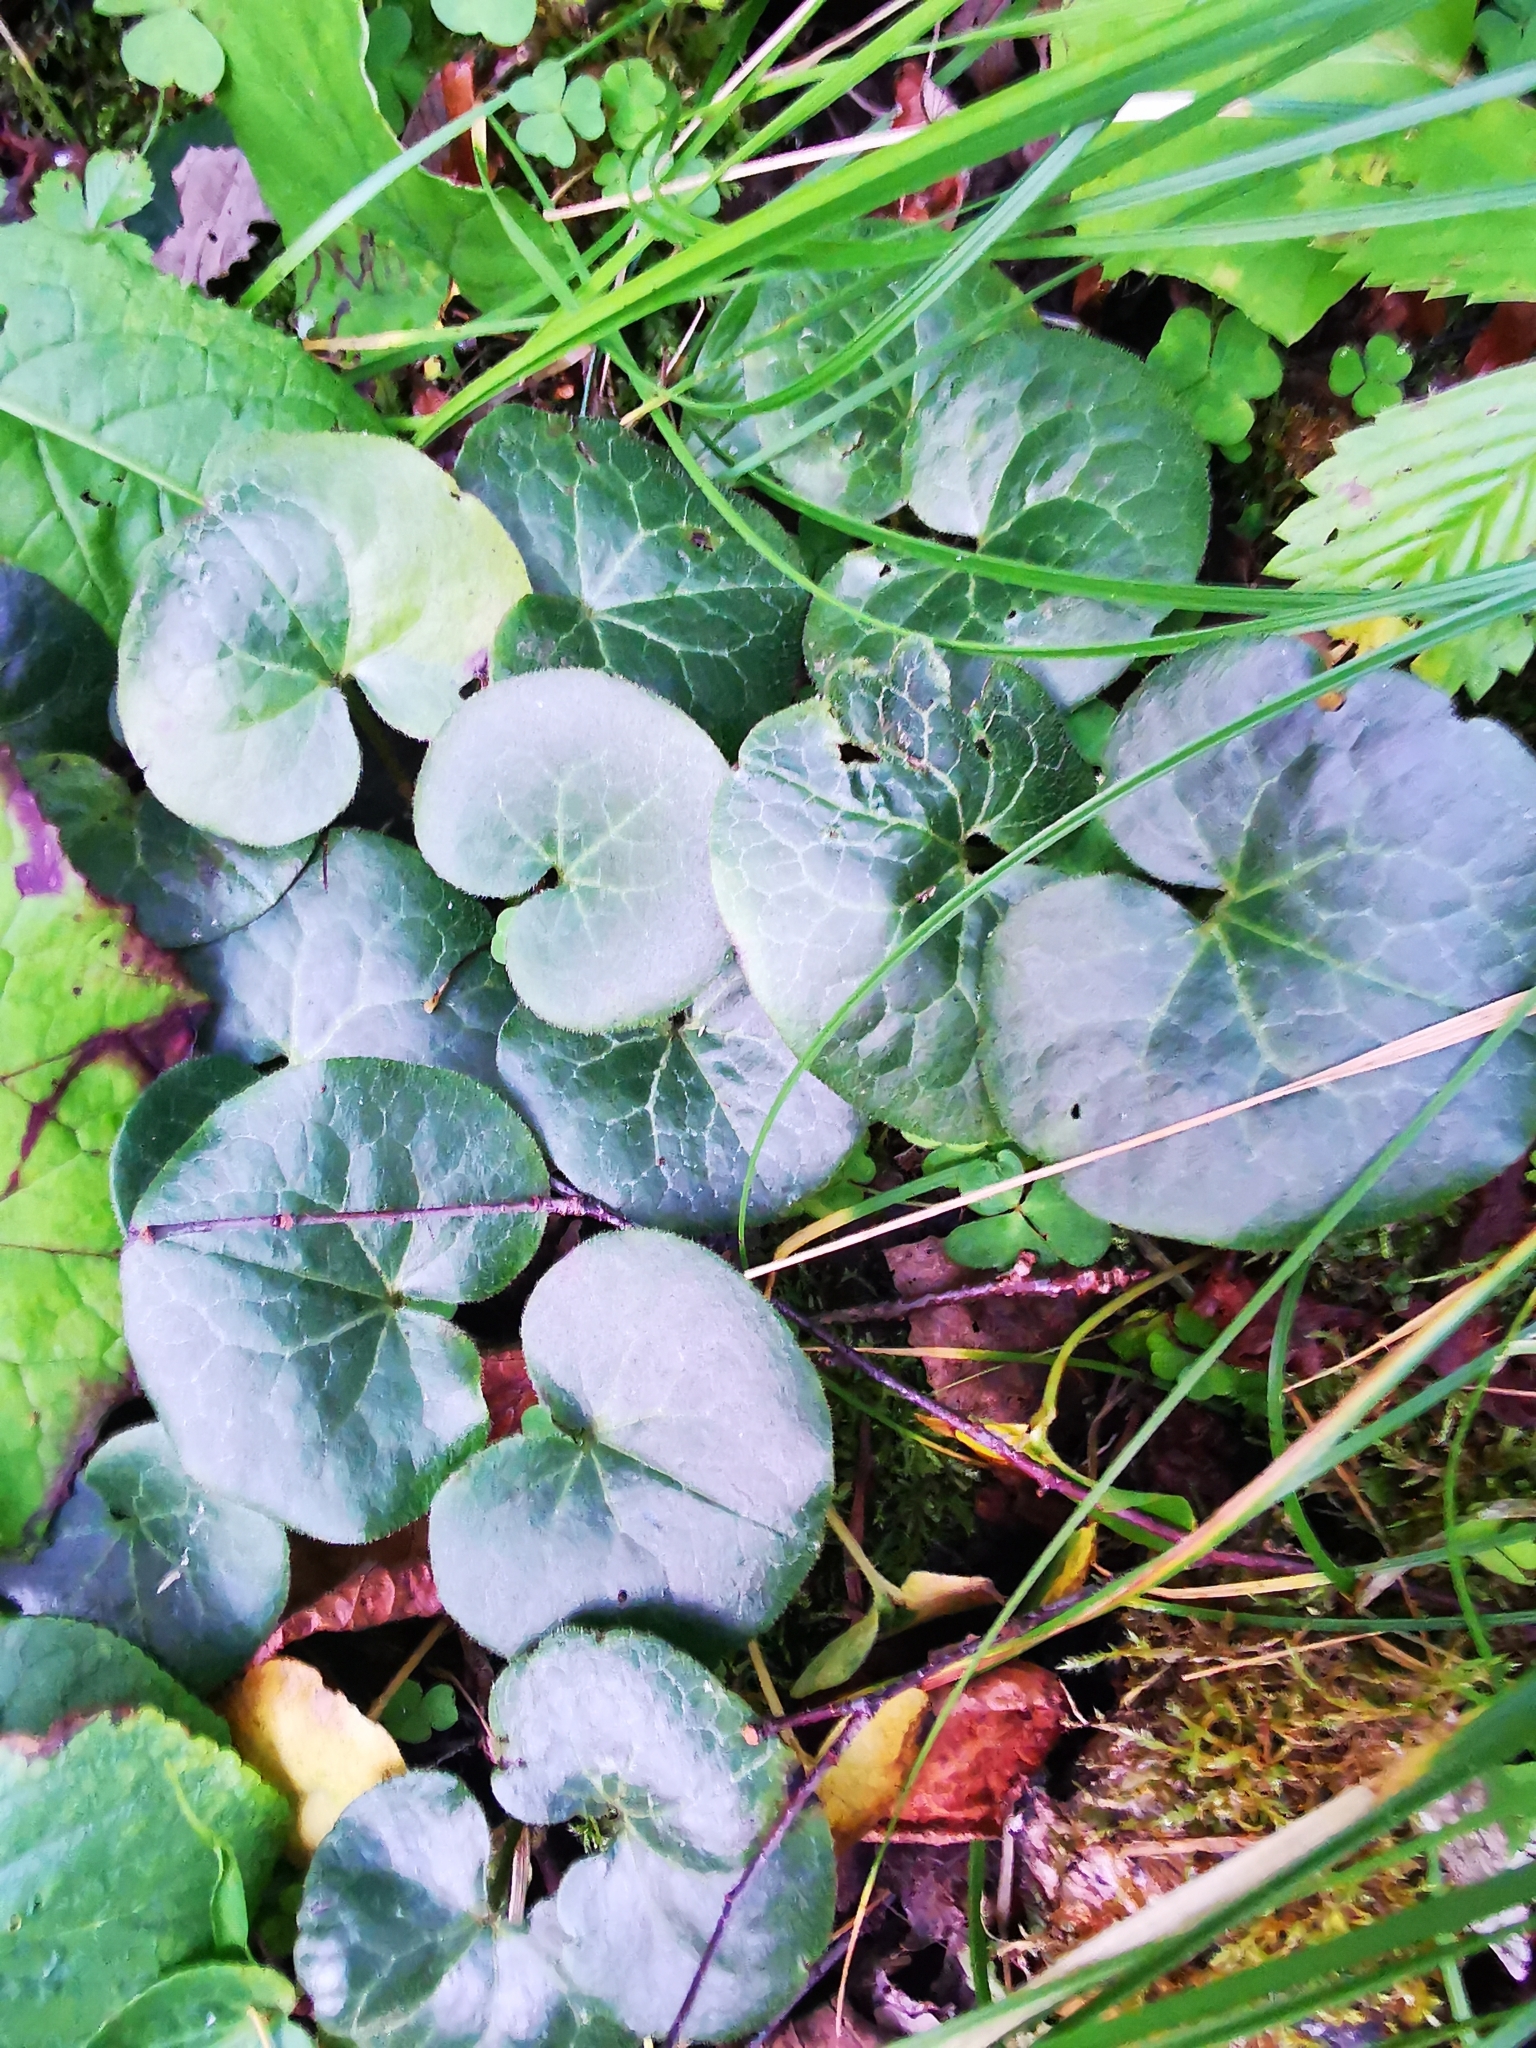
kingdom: Plantae
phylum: Tracheophyta
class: Magnoliopsida
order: Piperales
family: Aristolochiaceae
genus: Asarum
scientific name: Asarum europaeum
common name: Asarabacca
